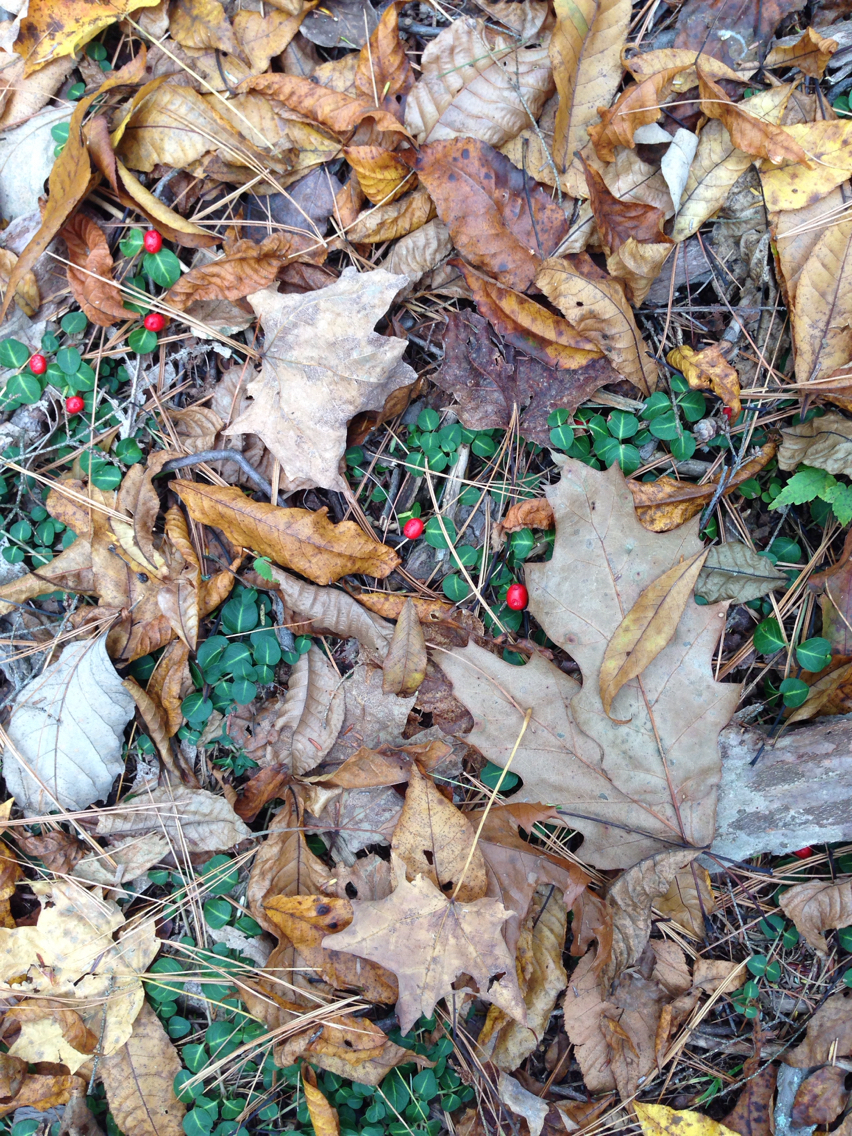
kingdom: Plantae
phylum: Tracheophyta
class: Magnoliopsida
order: Gentianales
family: Rubiaceae
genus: Mitchella
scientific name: Mitchella repens
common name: Partridge-berry
